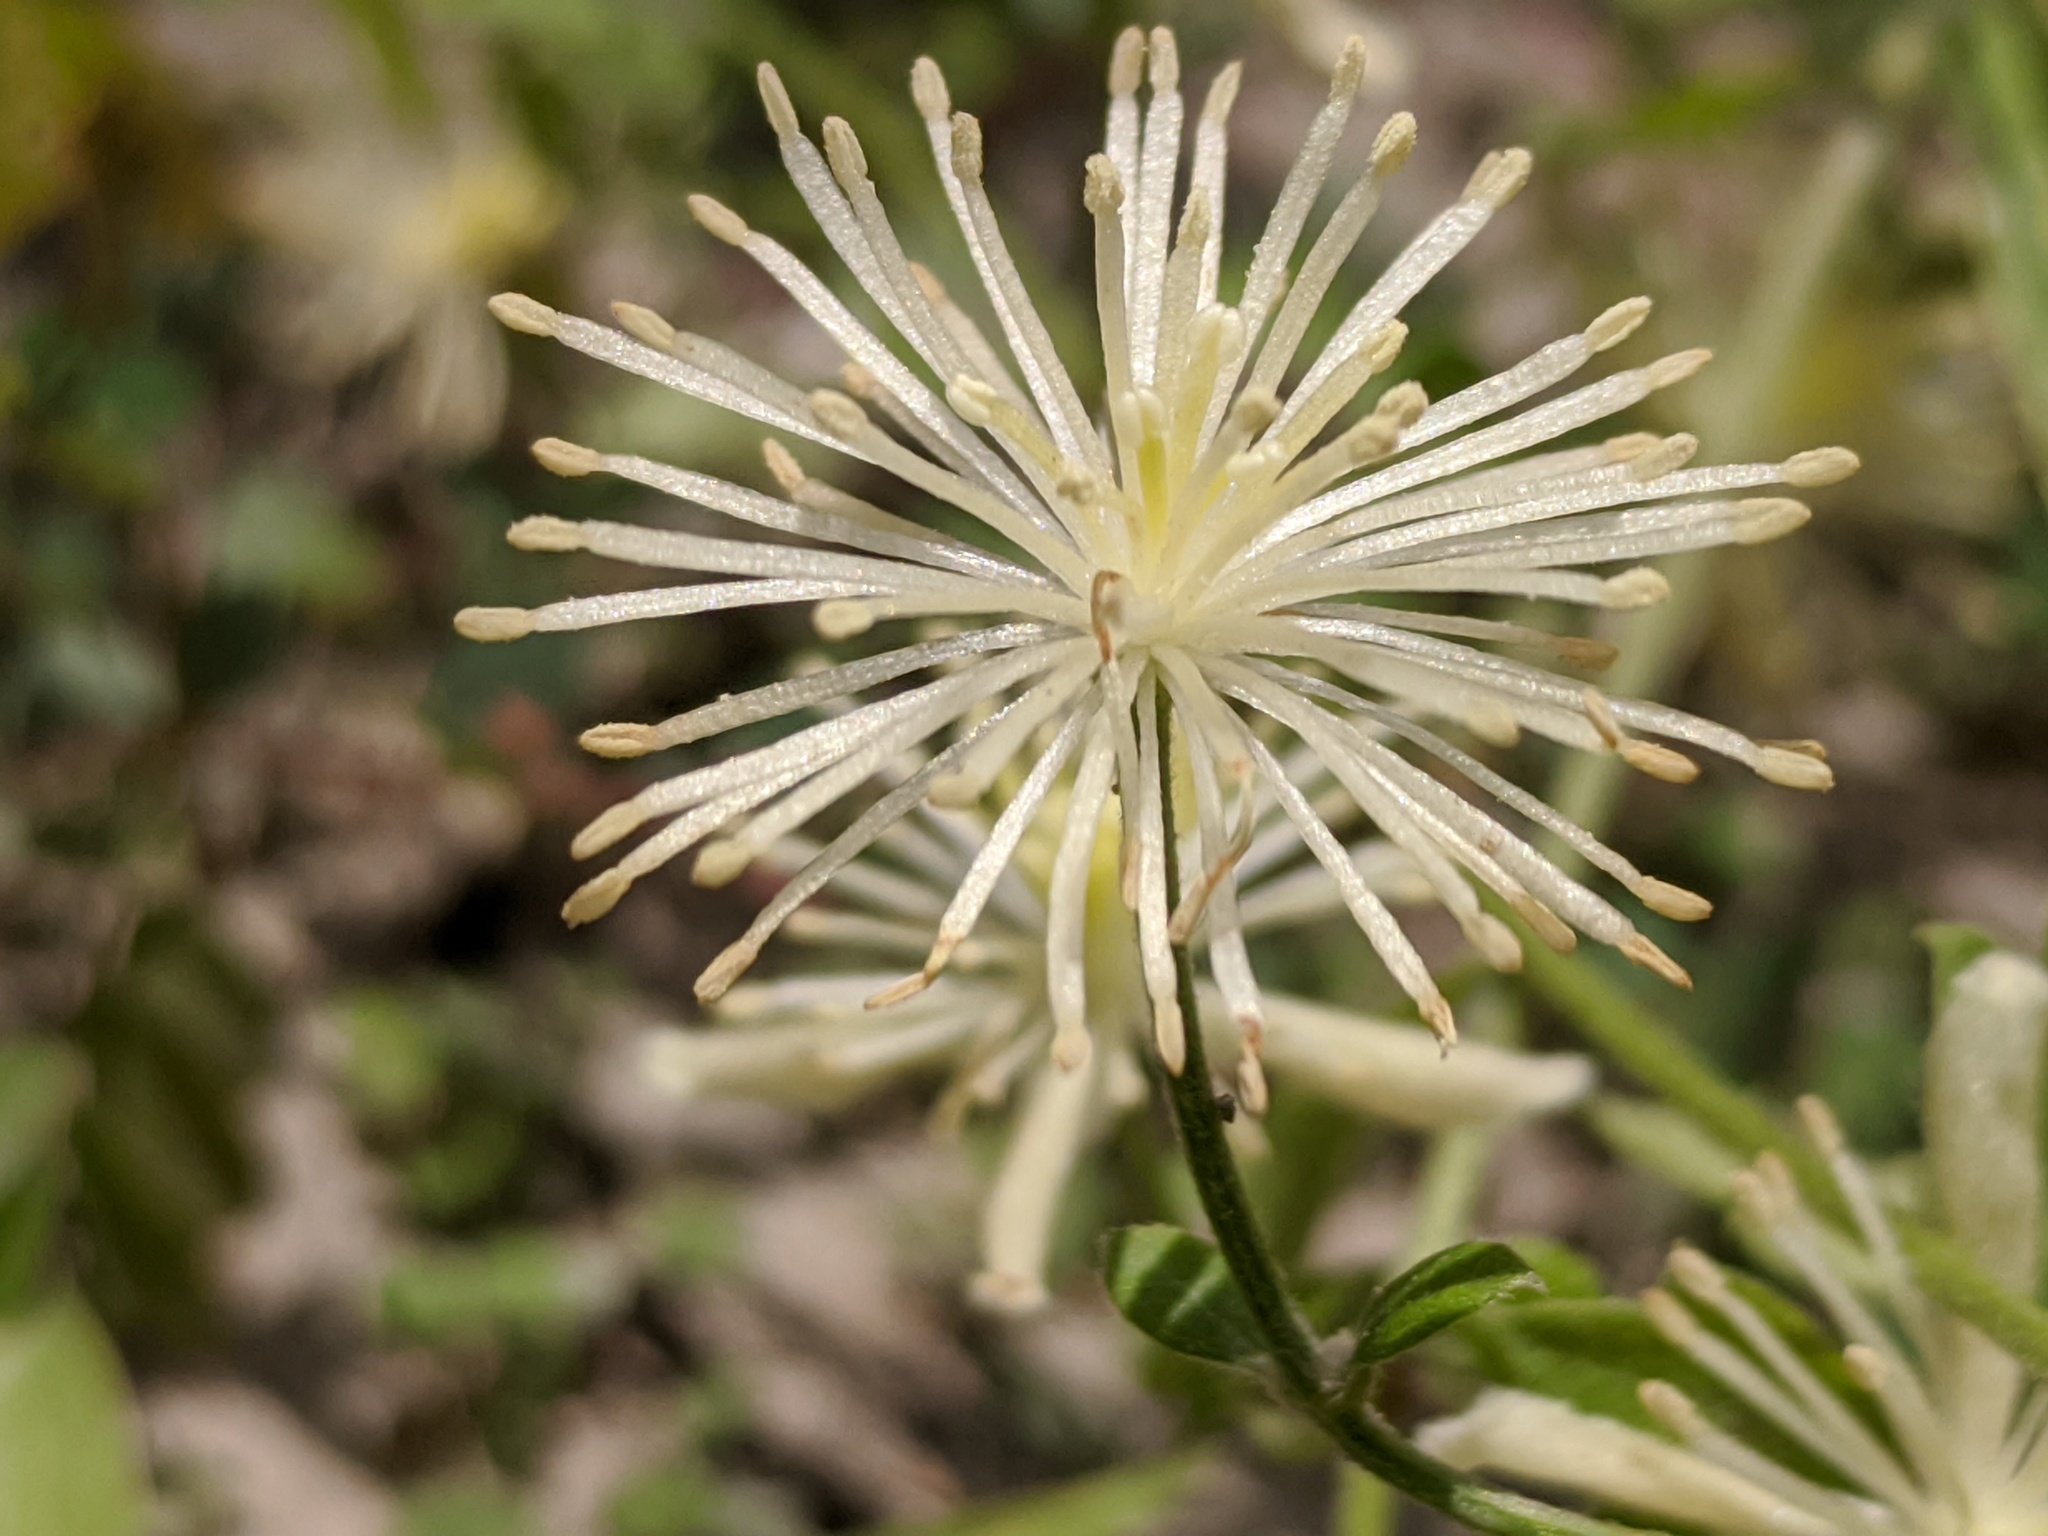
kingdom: Plantae
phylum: Tracheophyta
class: Magnoliopsida
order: Ranunculales
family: Ranunculaceae
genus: Clematis
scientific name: Clematis drummondii
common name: Texas virgin's bower
